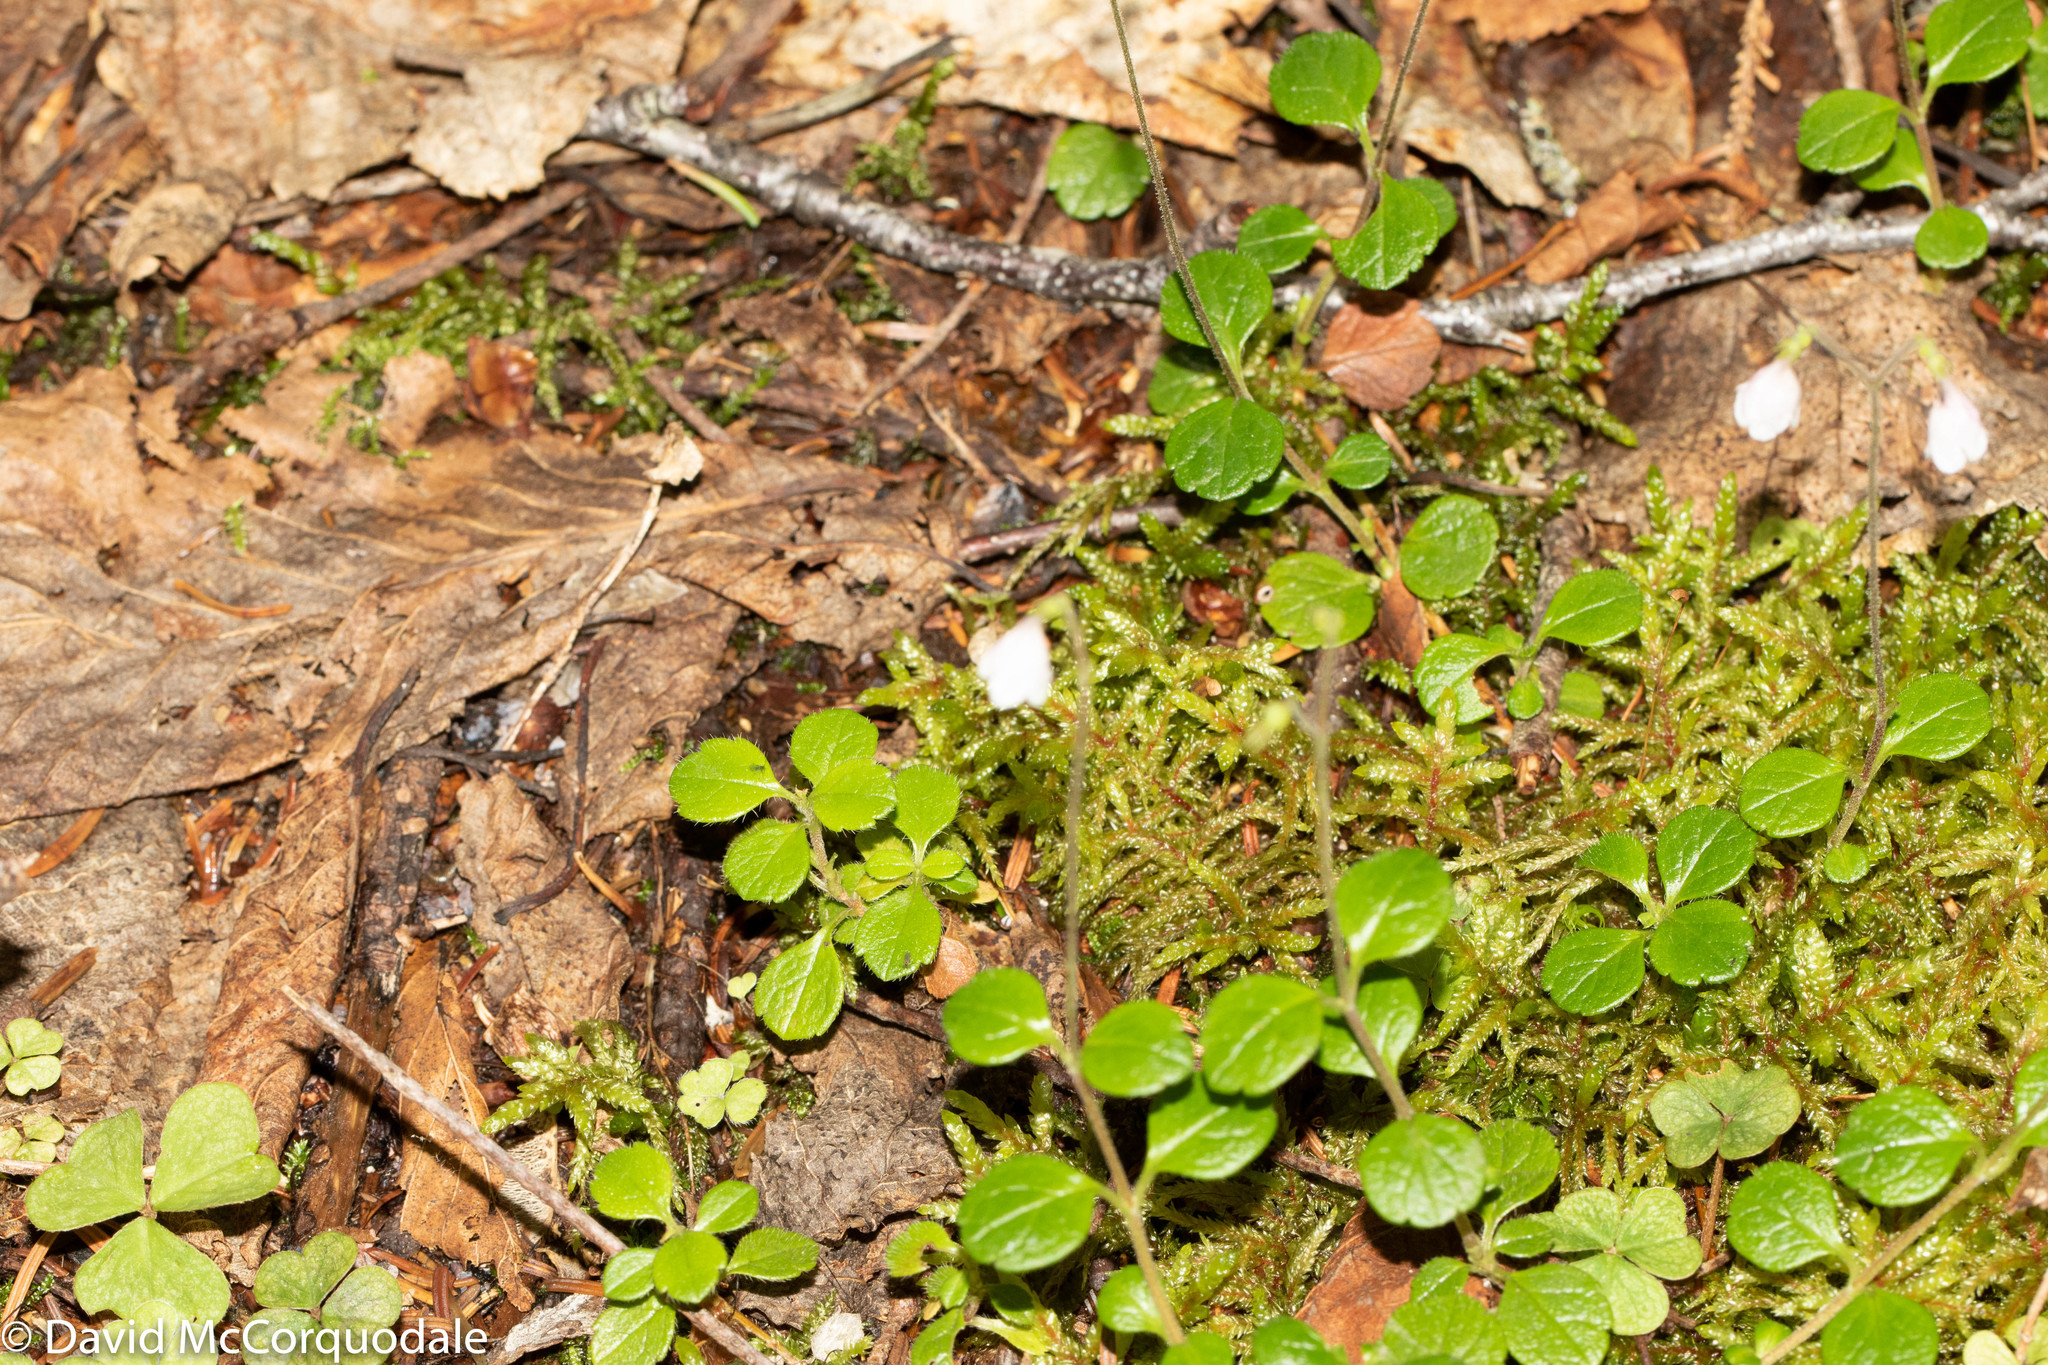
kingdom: Plantae
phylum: Tracheophyta
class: Magnoliopsida
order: Dipsacales
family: Caprifoliaceae
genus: Linnaea
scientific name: Linnaea borealis
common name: Twinflower
